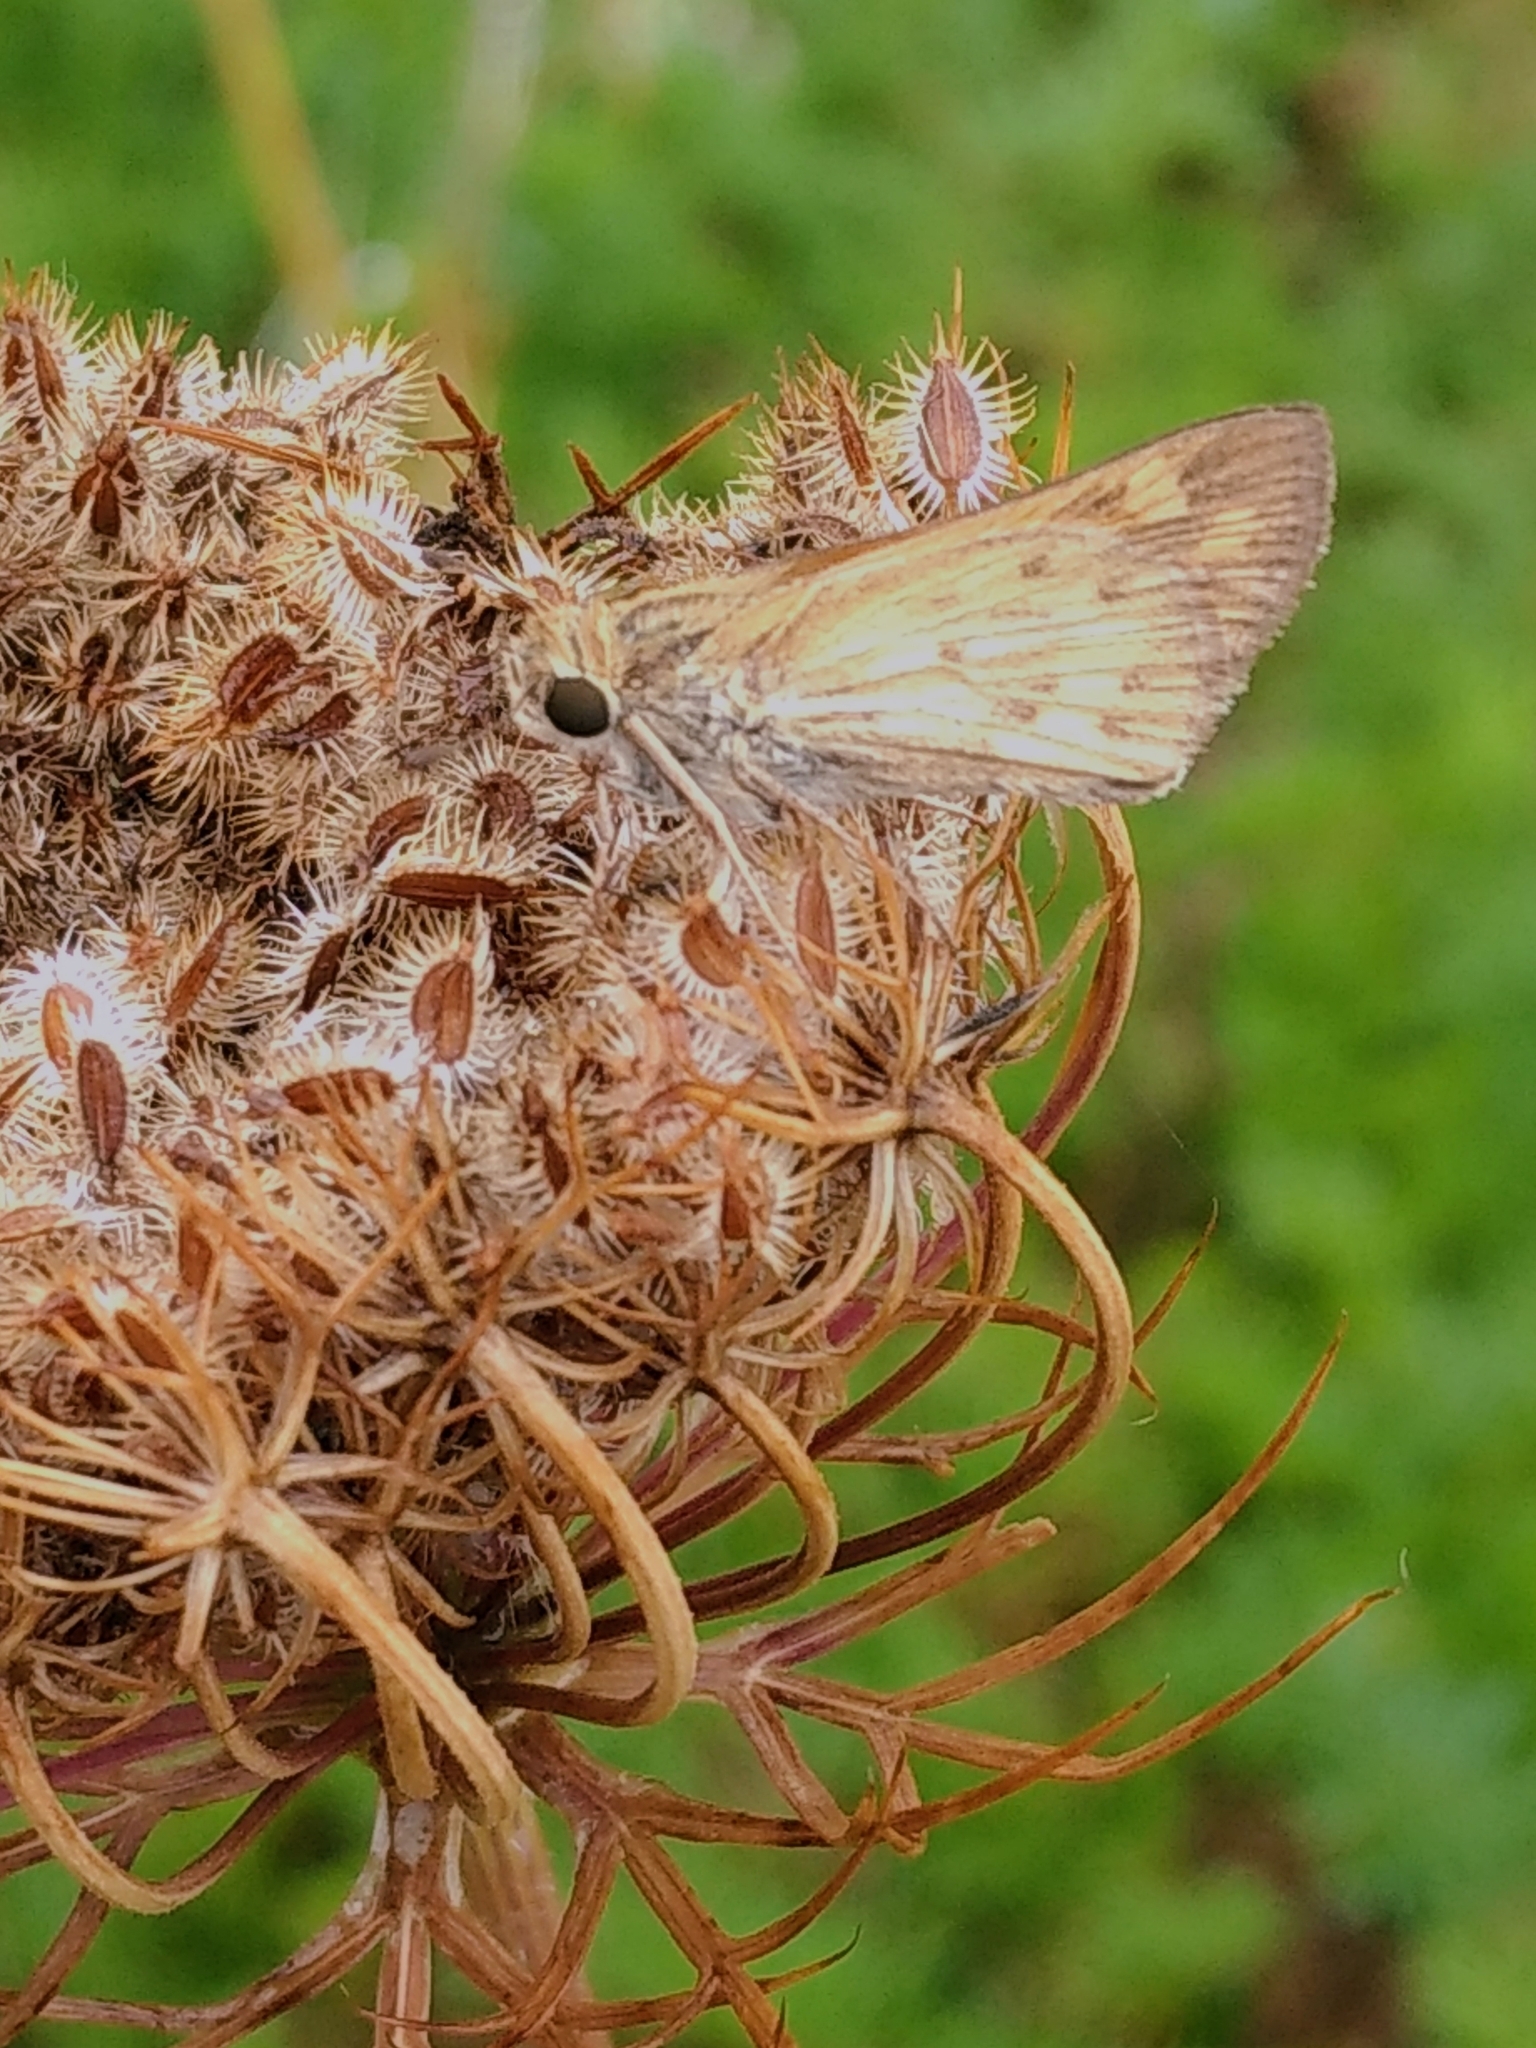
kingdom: Animalia
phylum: Arthropoda
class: Insecta
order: Lepidoptera
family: Hesperiidae
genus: Hylephila
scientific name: Hylephila phyleus
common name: Fiery skipper
